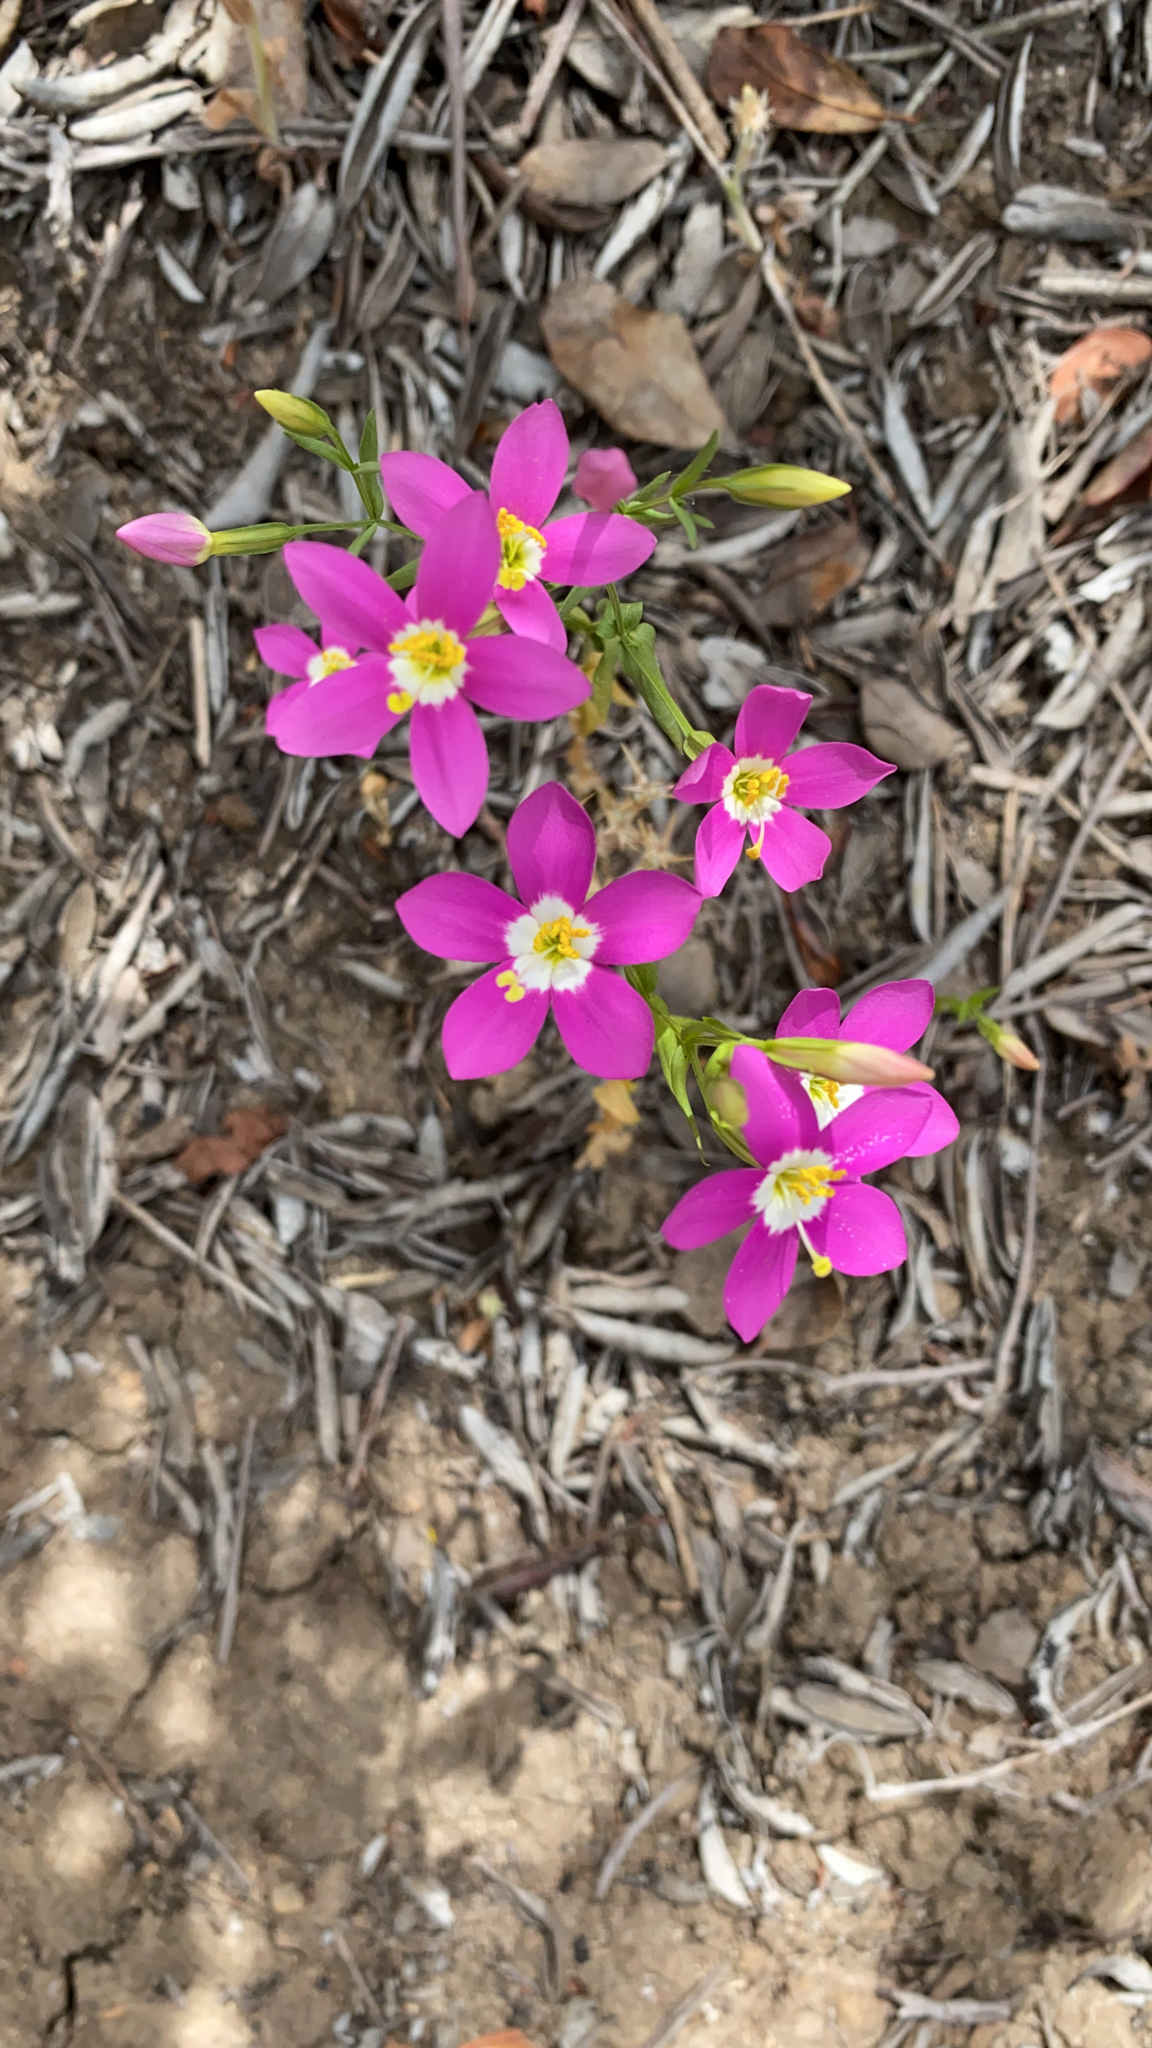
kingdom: Plantae
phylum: Tracheophyta
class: Magnoliopsida
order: Gentianales
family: Gentianaceae
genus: Zeltnera
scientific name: Zeltnera venusta
